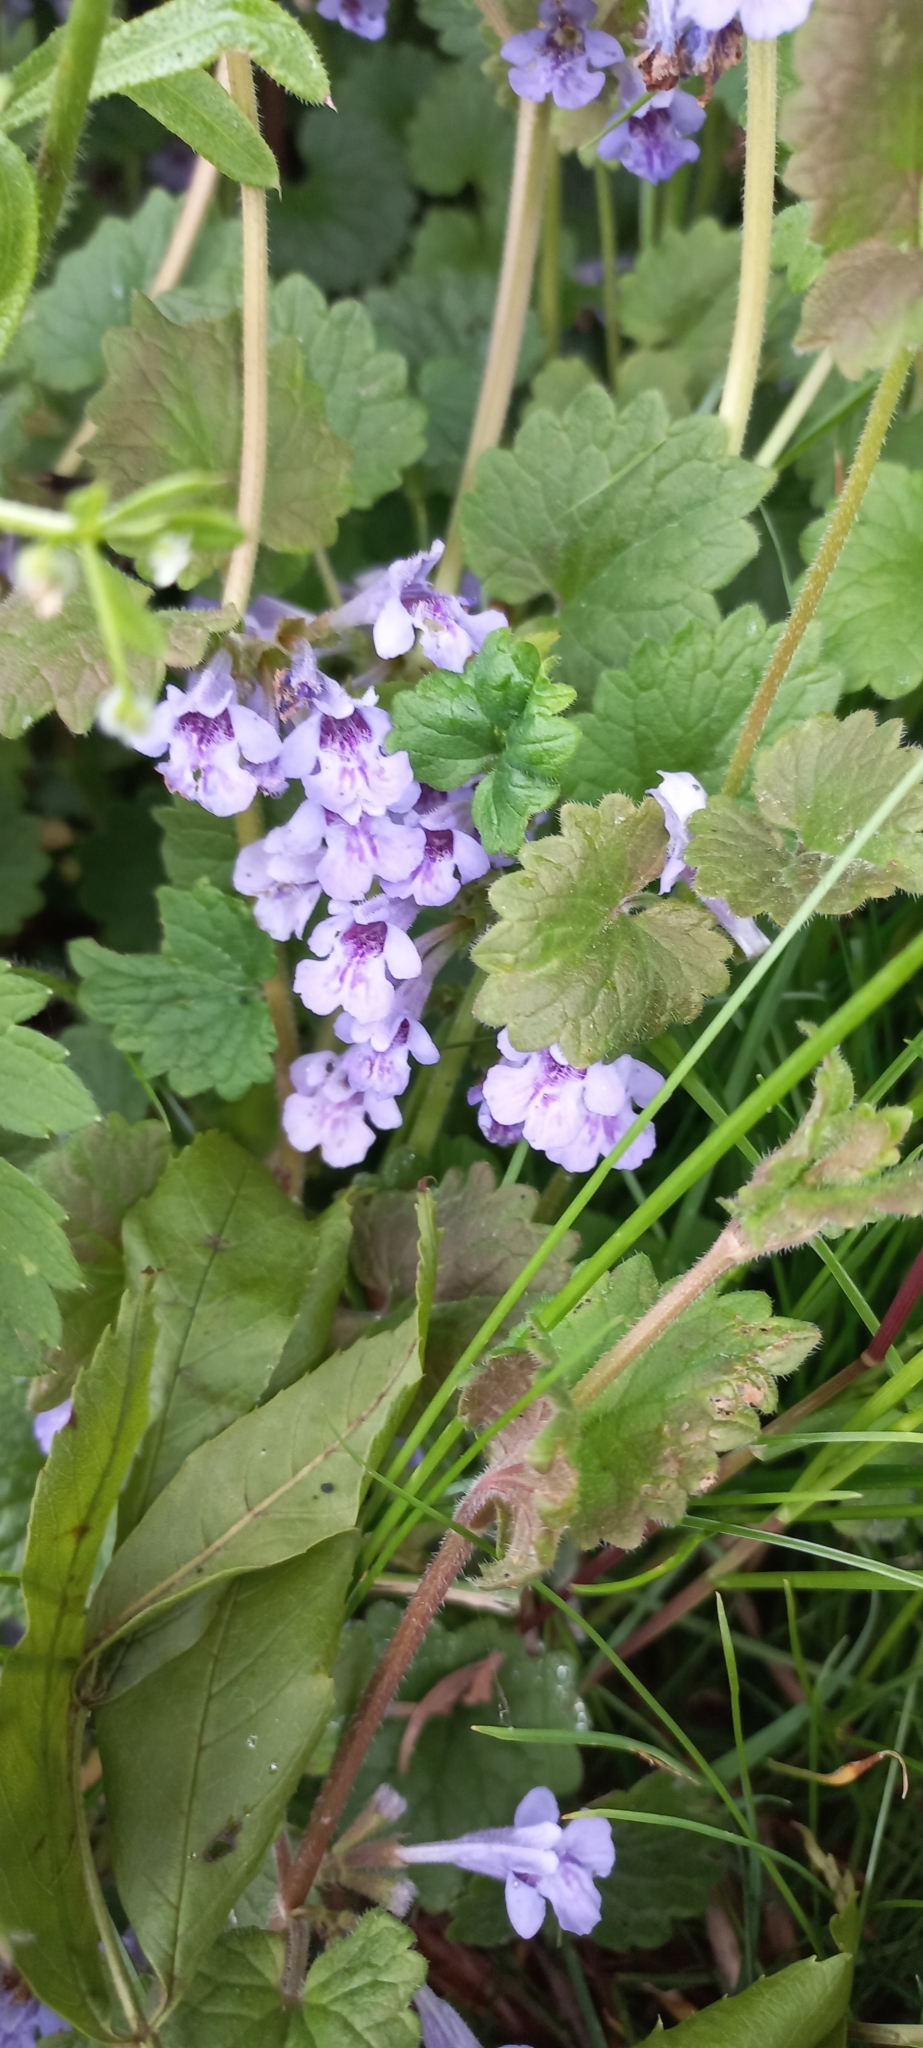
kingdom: Plantae
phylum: Tracheophyta
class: Magnoliopsida
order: Lamiales
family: Lamiaceae
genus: Glechoma
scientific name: Glechoma hederacea
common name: Ground ivy
